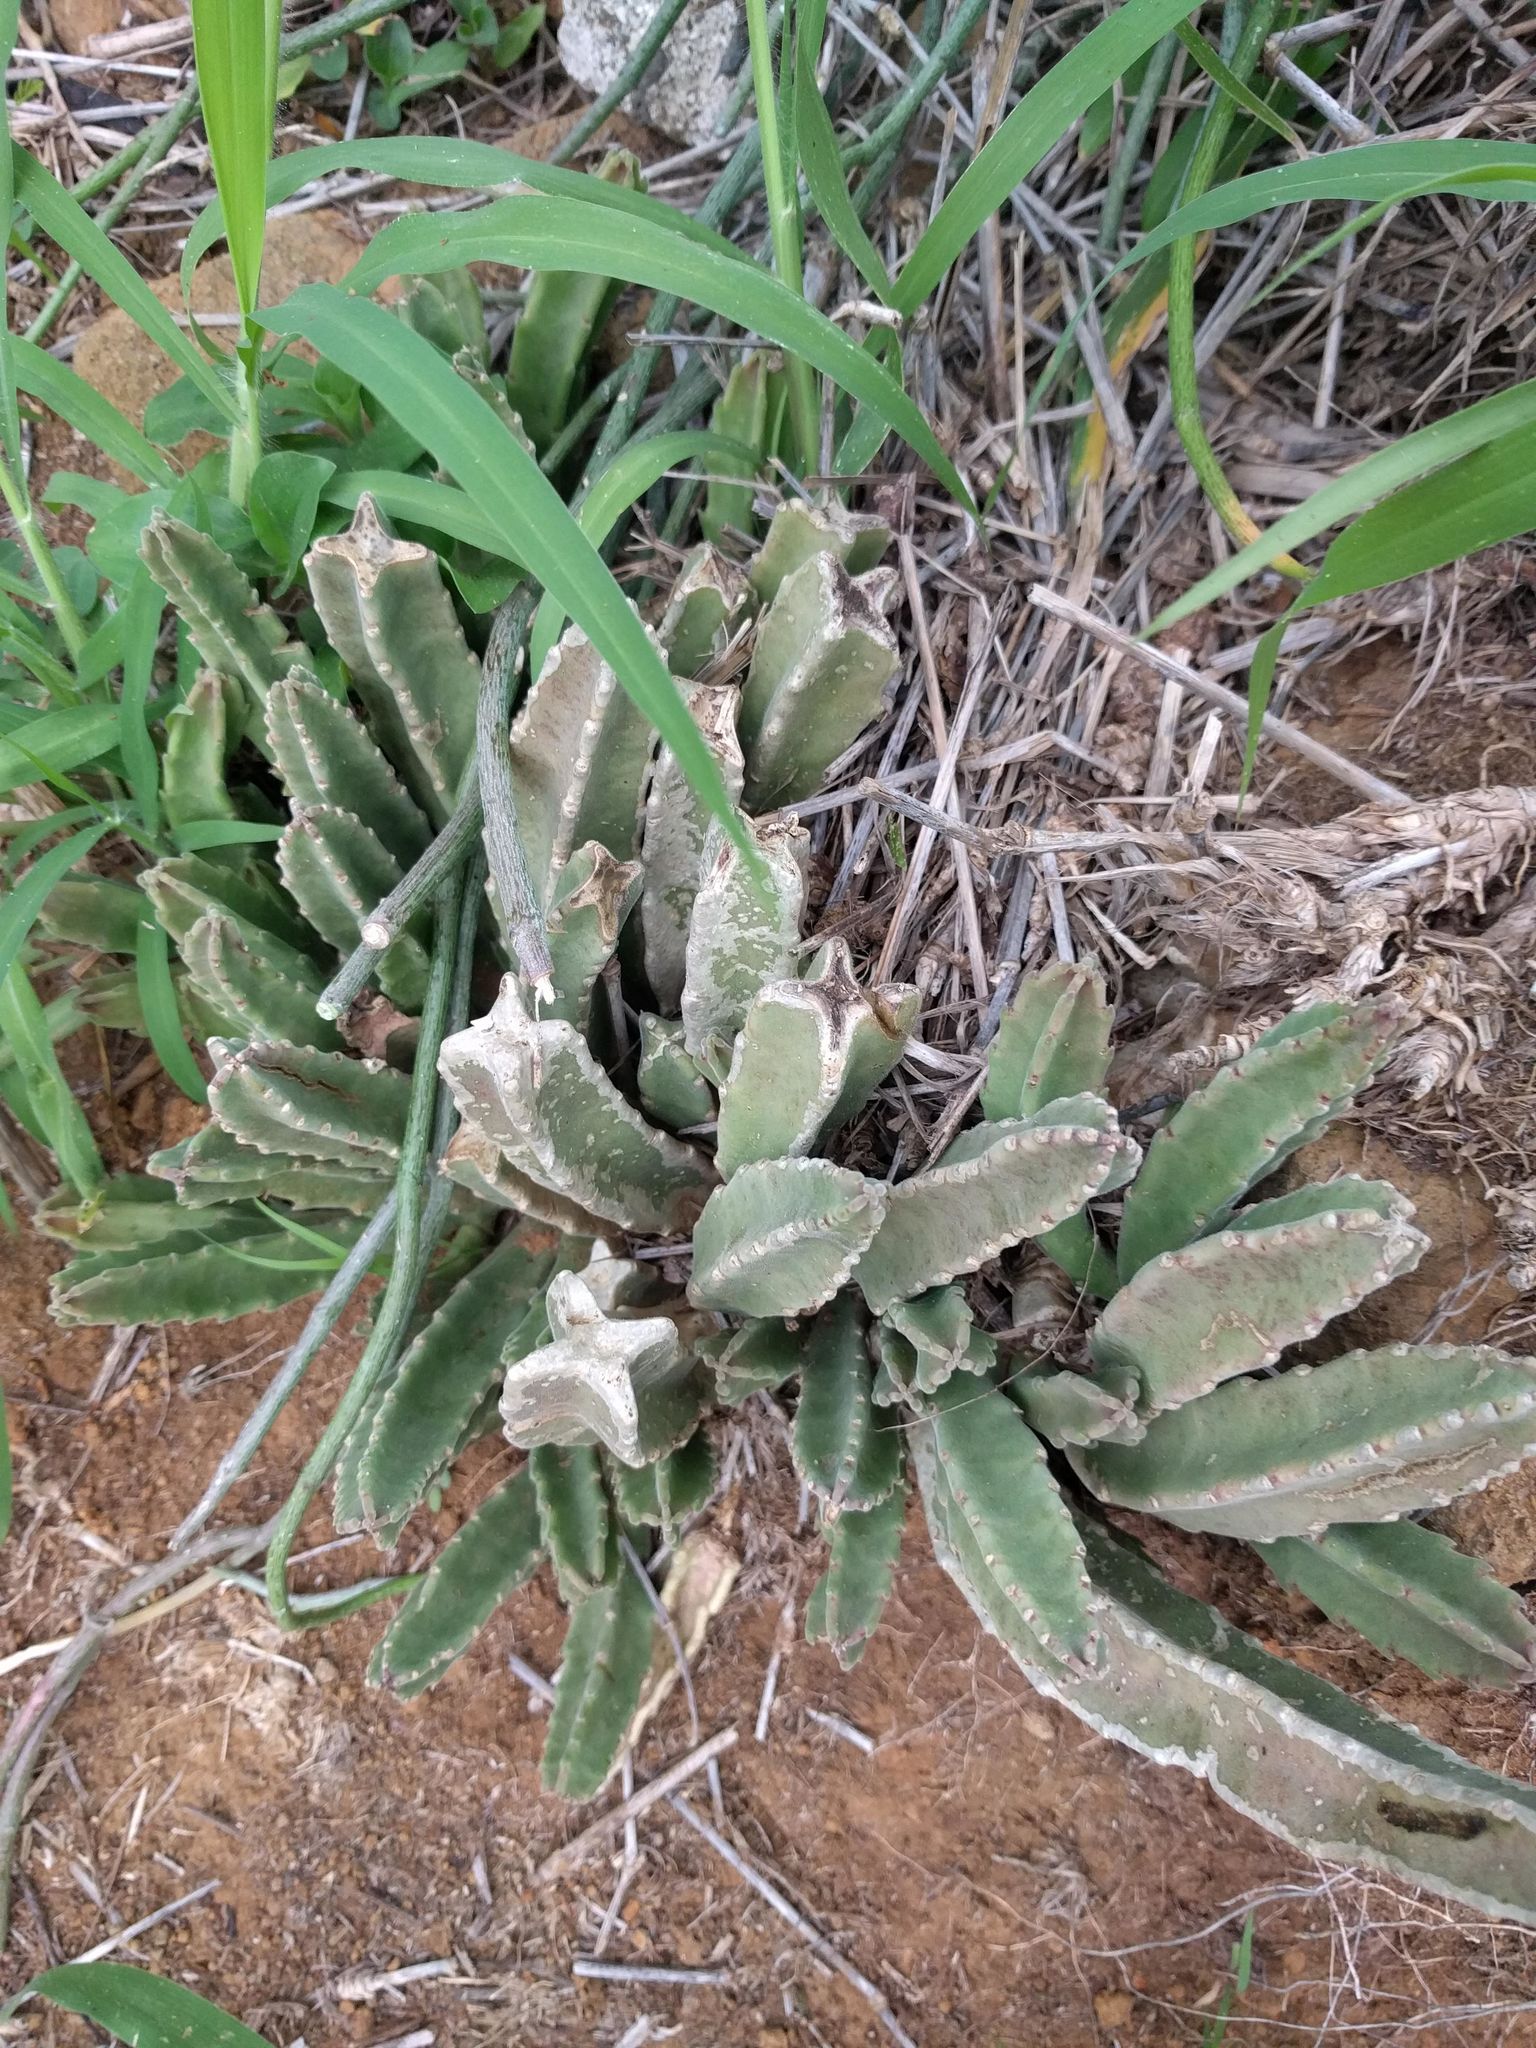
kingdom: Plantae
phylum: Tracheophyta
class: Magnoliopsida
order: Gentianales
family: Apocynaceae
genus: Ceropegia
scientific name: Ceropegia gigantea
